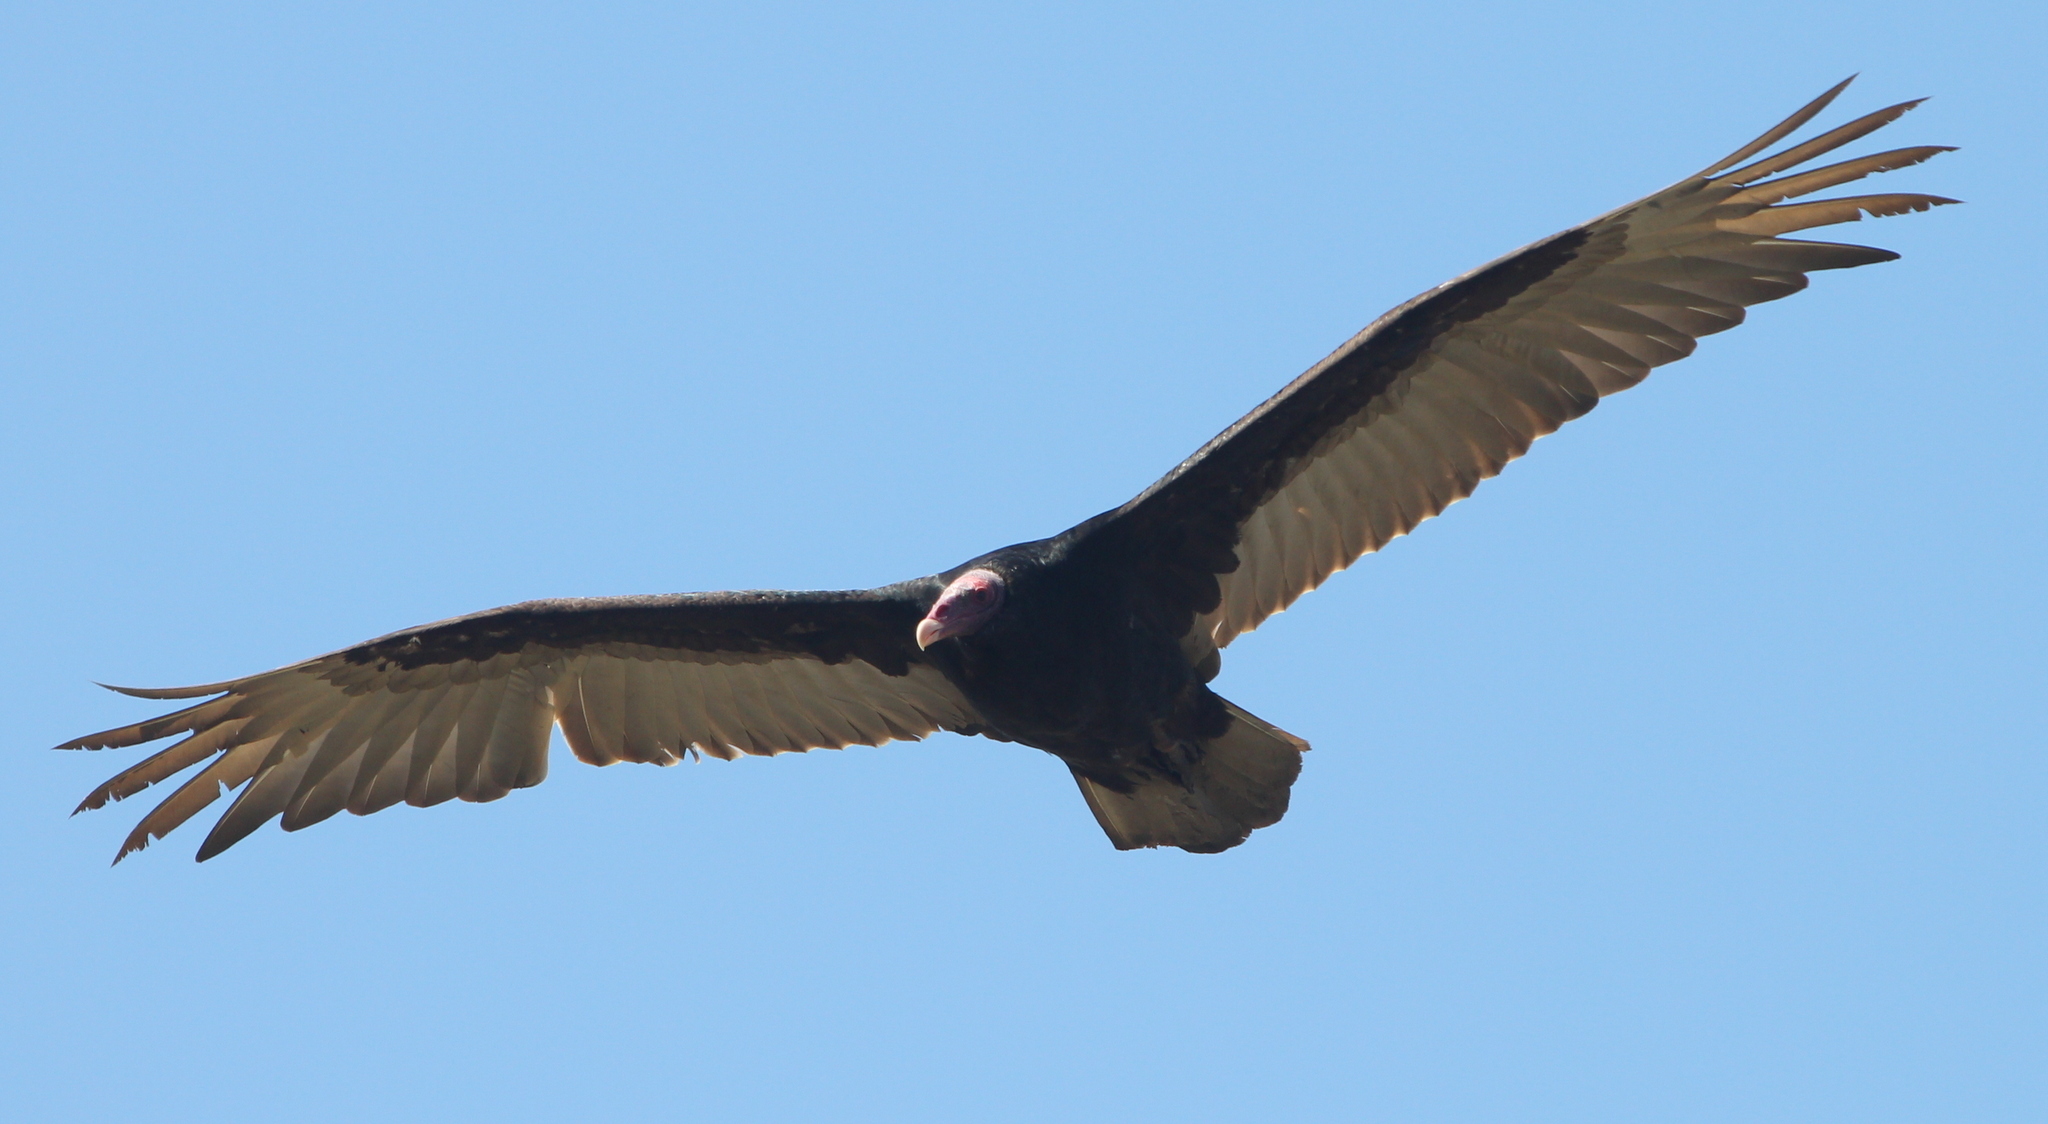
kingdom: Animalia
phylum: Chordata
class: Aves
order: Accipitriformes
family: Cathartidae
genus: Cathartes
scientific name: Cathartes aura
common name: Turkey vulture
